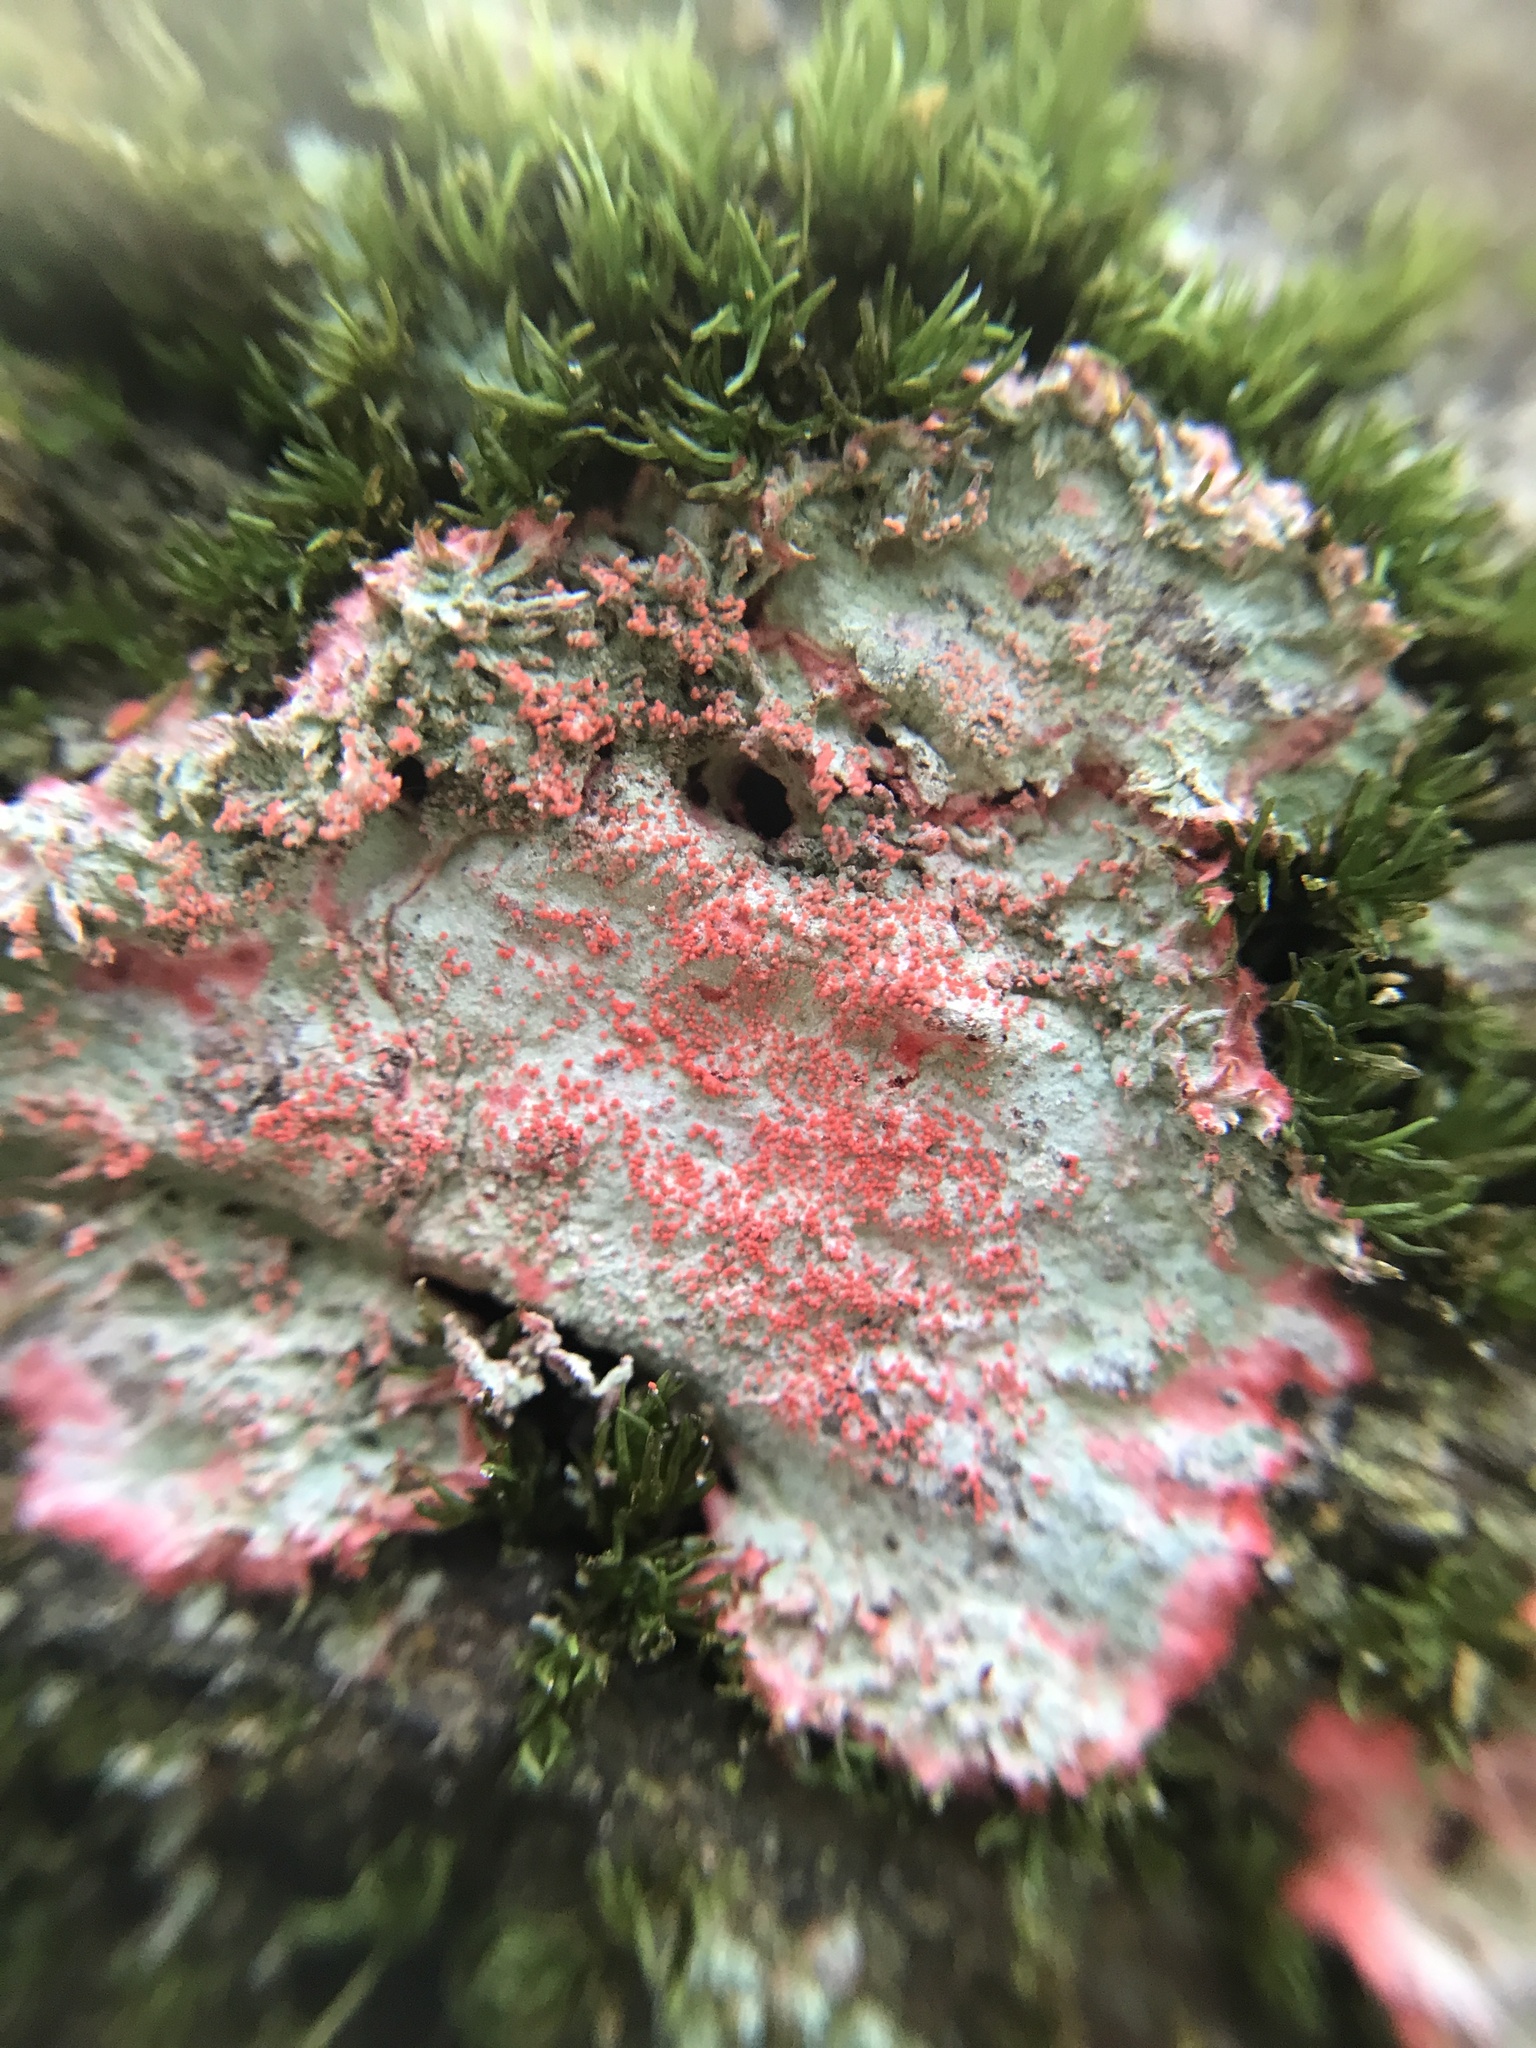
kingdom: Fungi
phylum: Ascomycota
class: Arthoniomycetes
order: Arthoniales
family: Arthoniaceae
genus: Herpothallon
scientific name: Herpothallon rubrocinctum
